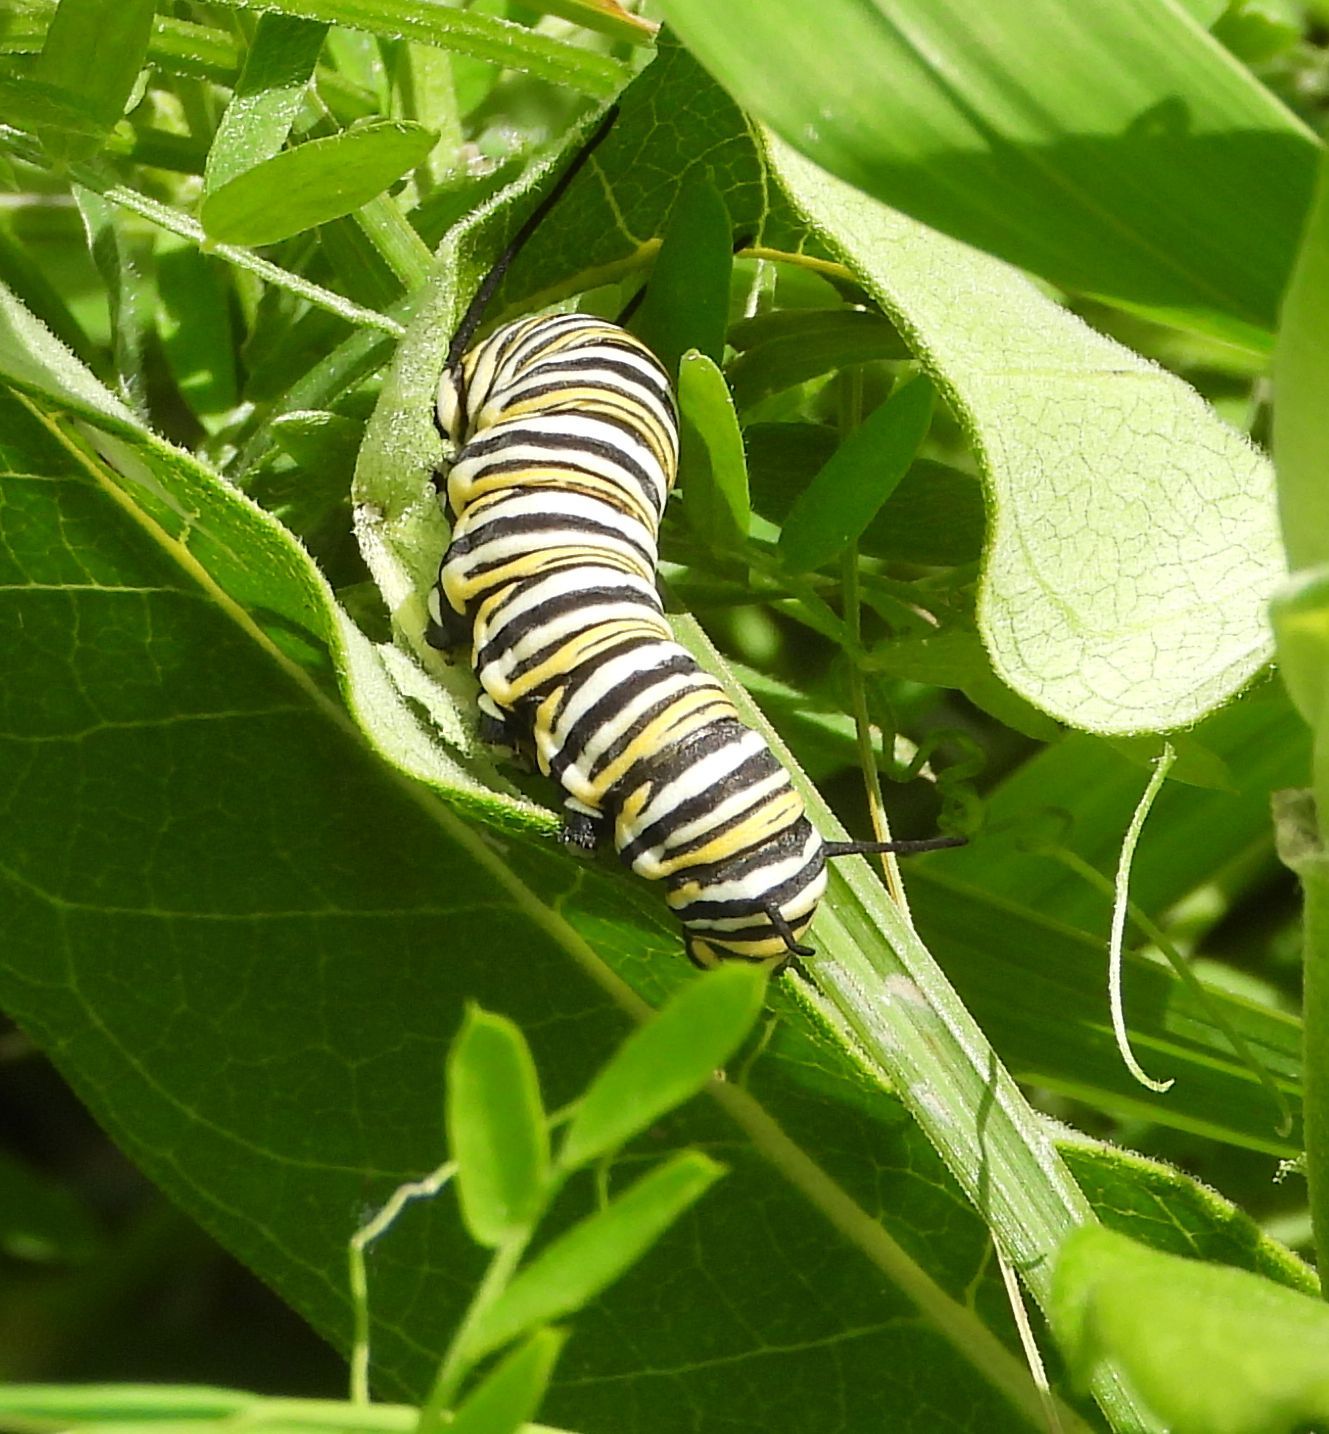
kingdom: Animalia
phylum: Arthropoda
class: Insecta
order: Lepidoptera
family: Nymphalidae
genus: Danaus
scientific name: Danaus plexippus
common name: Monarch
